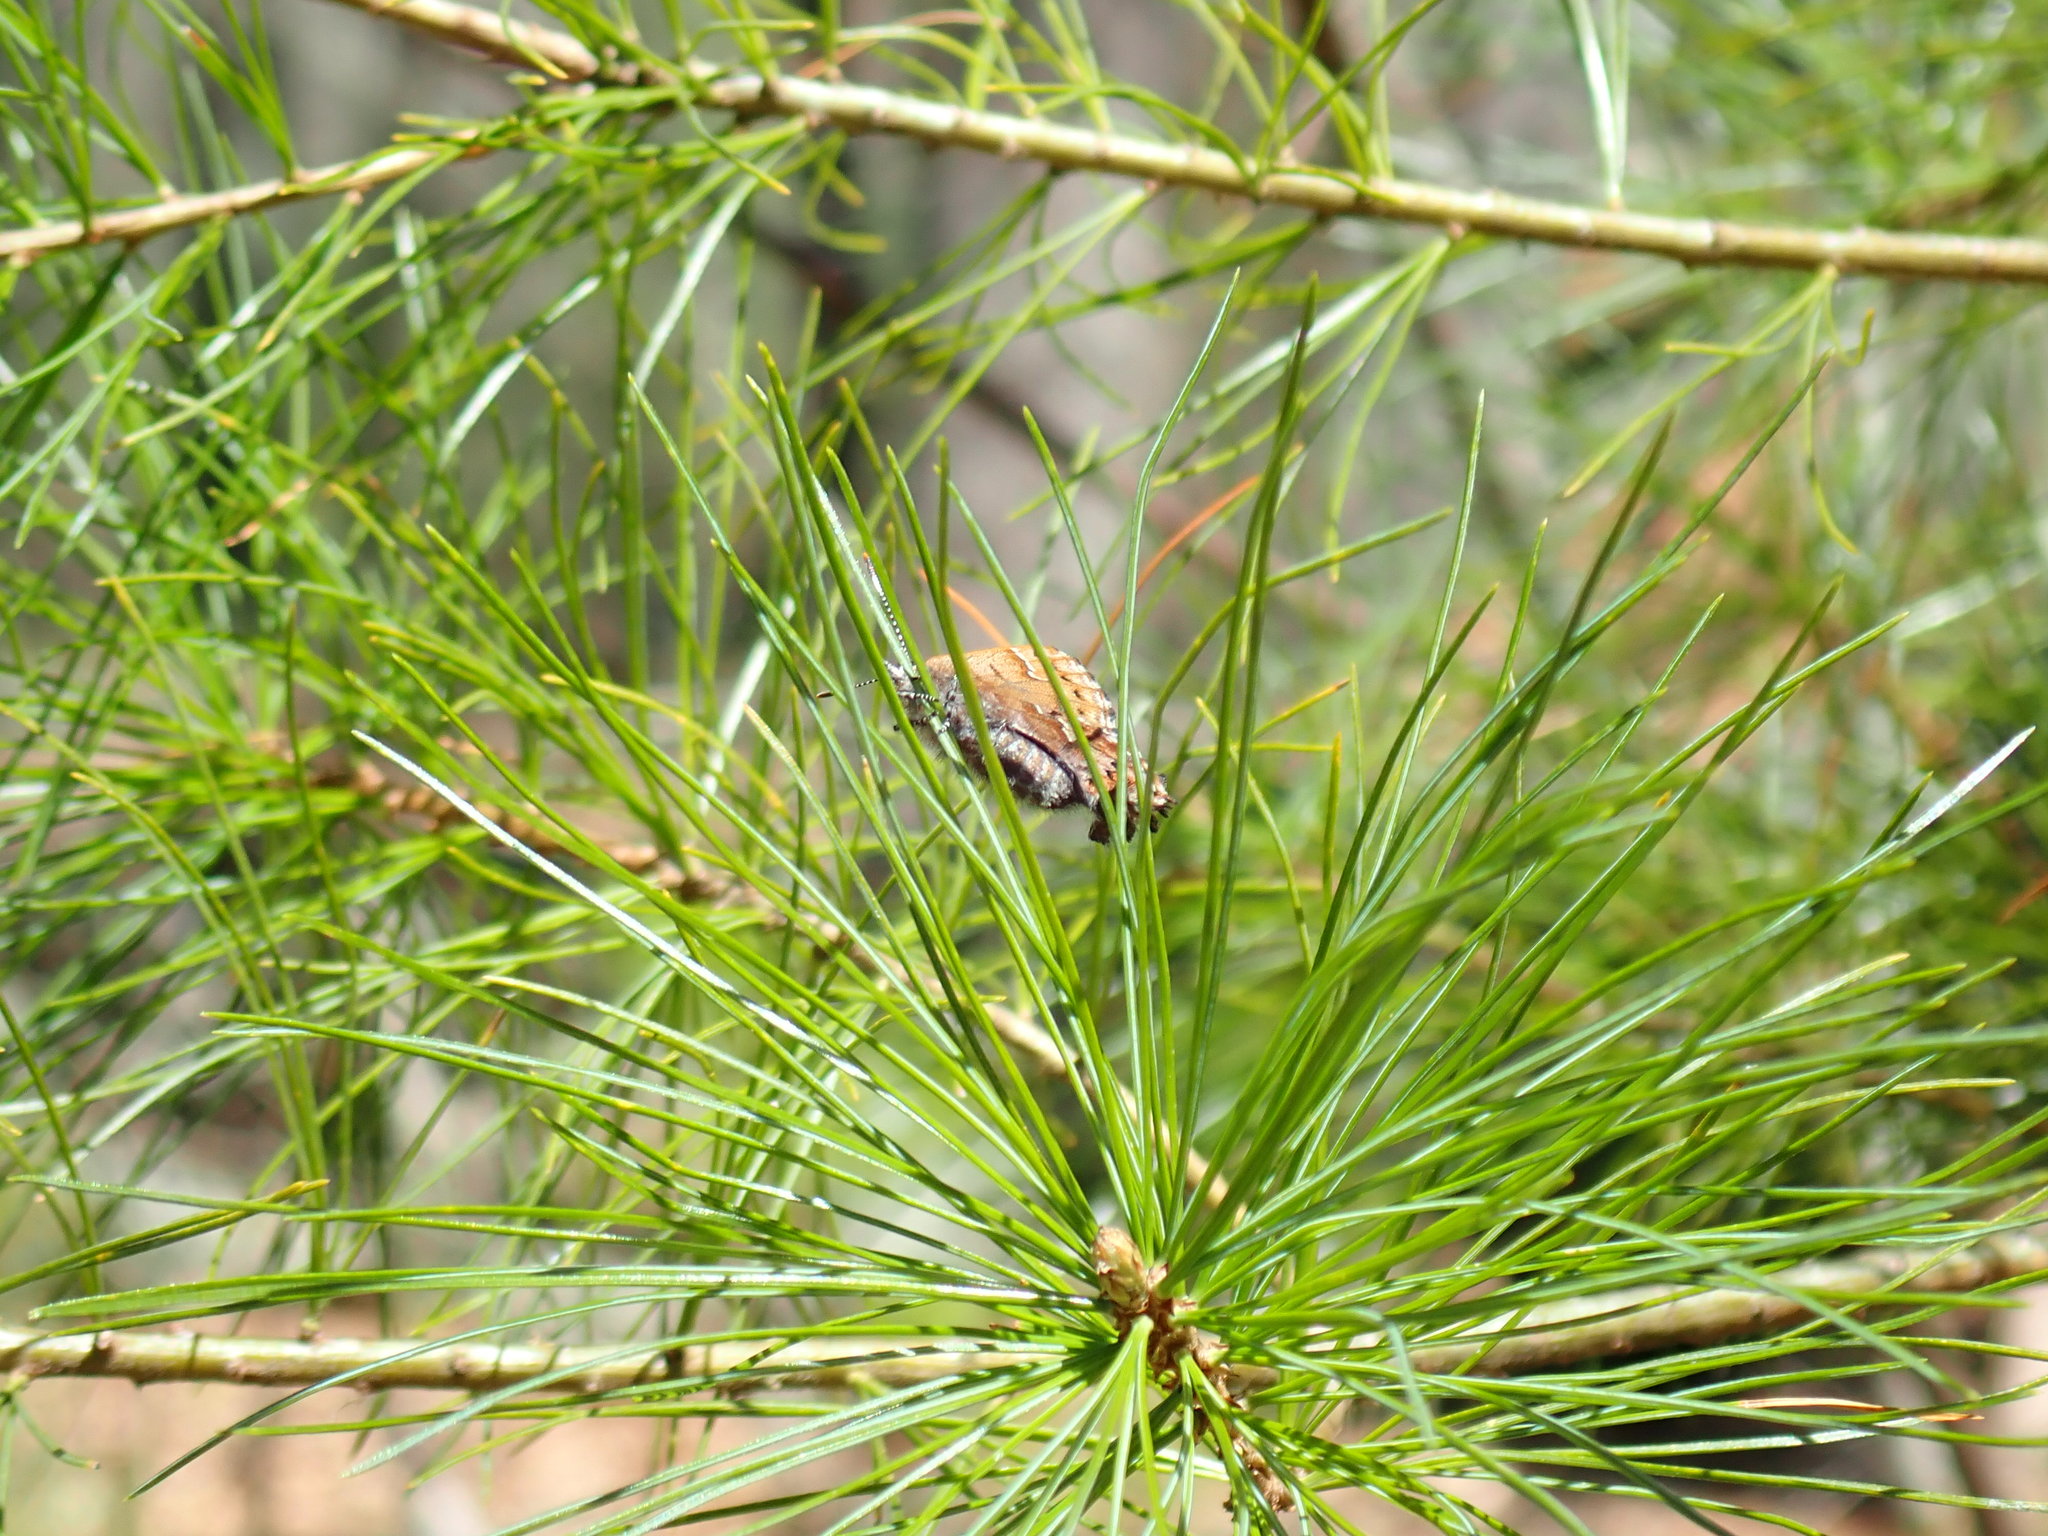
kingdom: Animalia
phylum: Arthropoda
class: Insecta
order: Lepidoptera
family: Lycaenidae
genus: Incisalia
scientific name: Incisalia niphon
